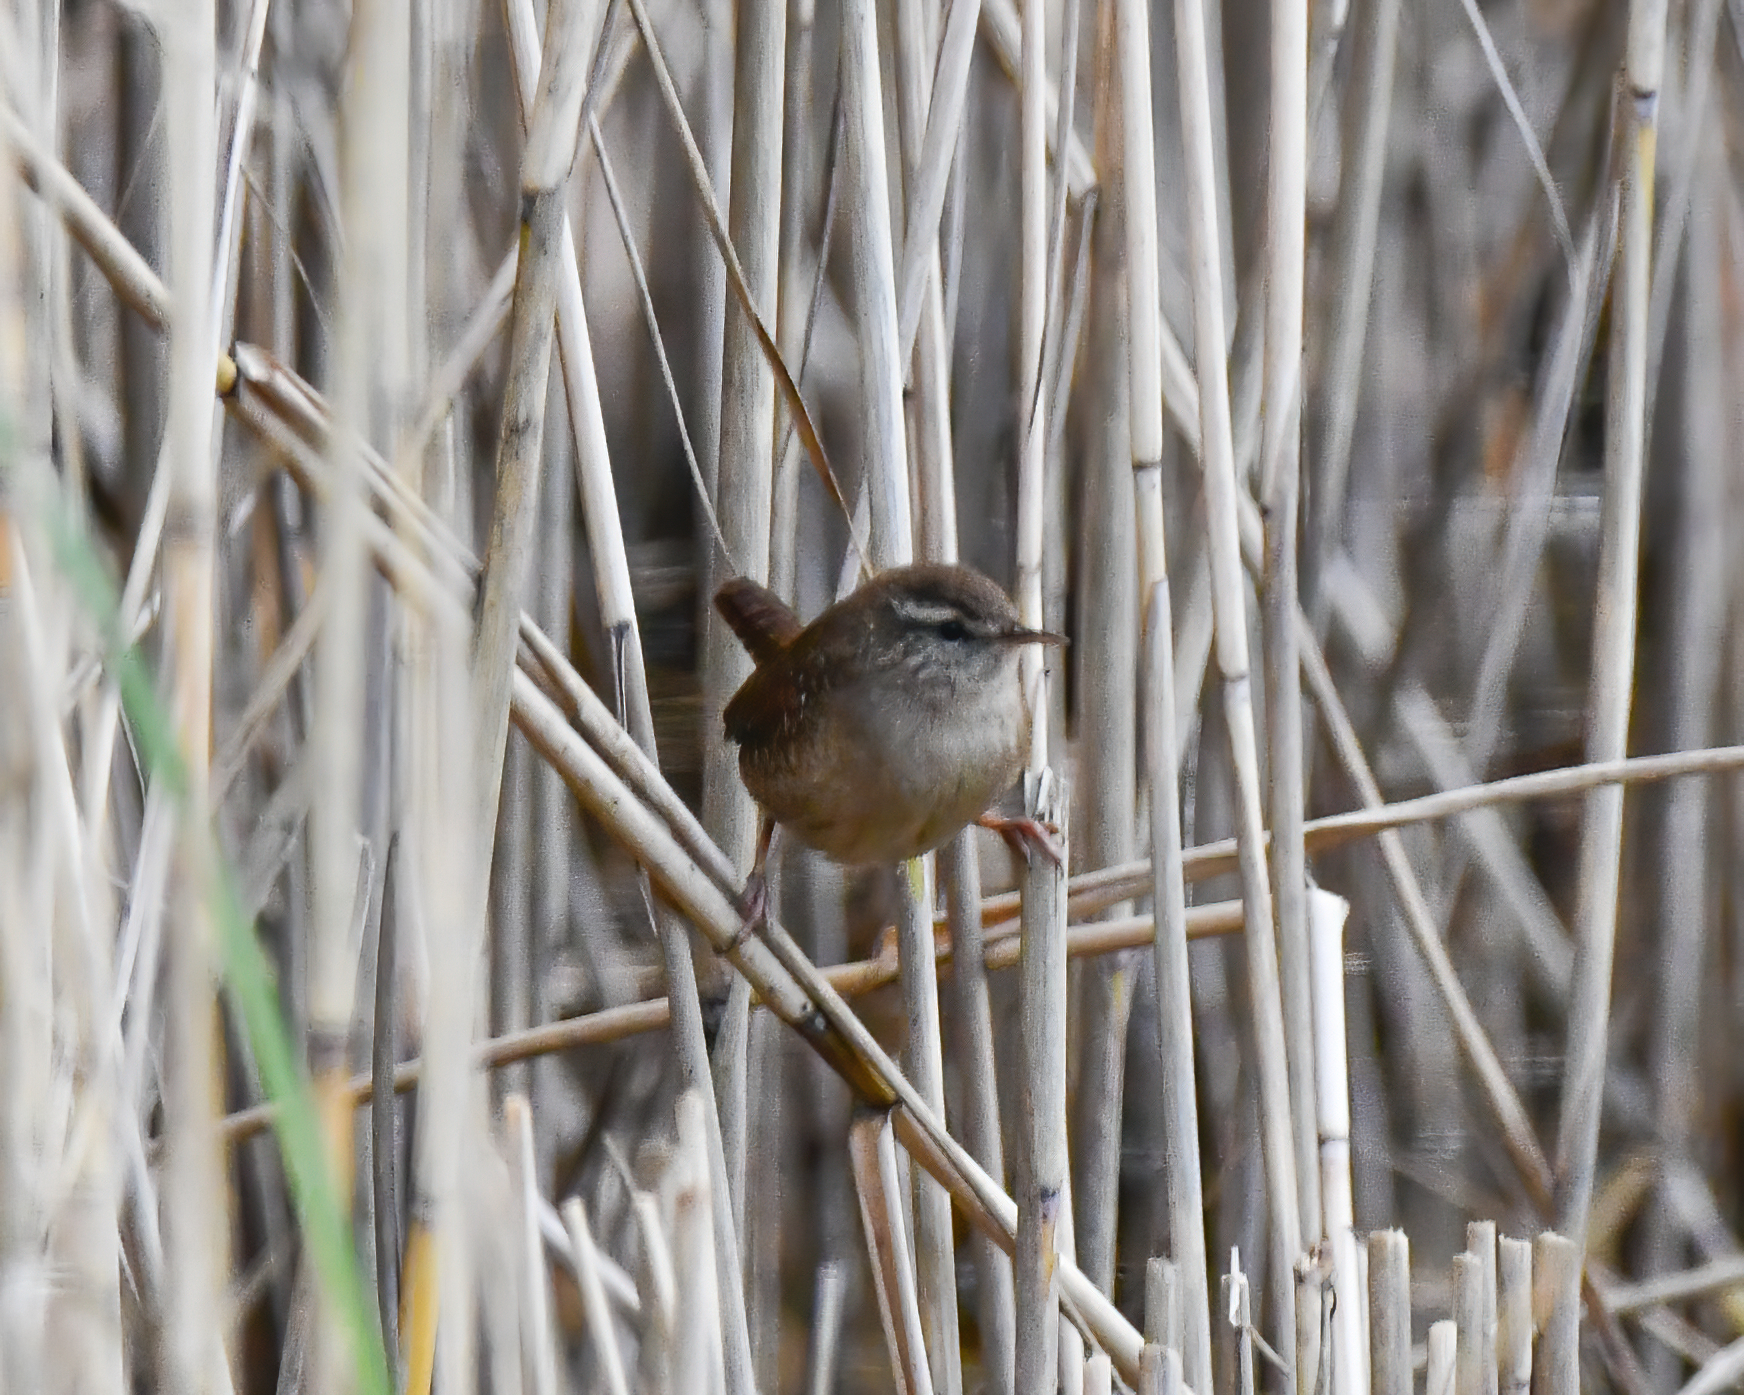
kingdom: Animalia
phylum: Chordata
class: Aves
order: Passeriformes
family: Troglodytidae
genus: Troglodytes
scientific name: Troglodytes troglodytes
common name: Eurasian wren
